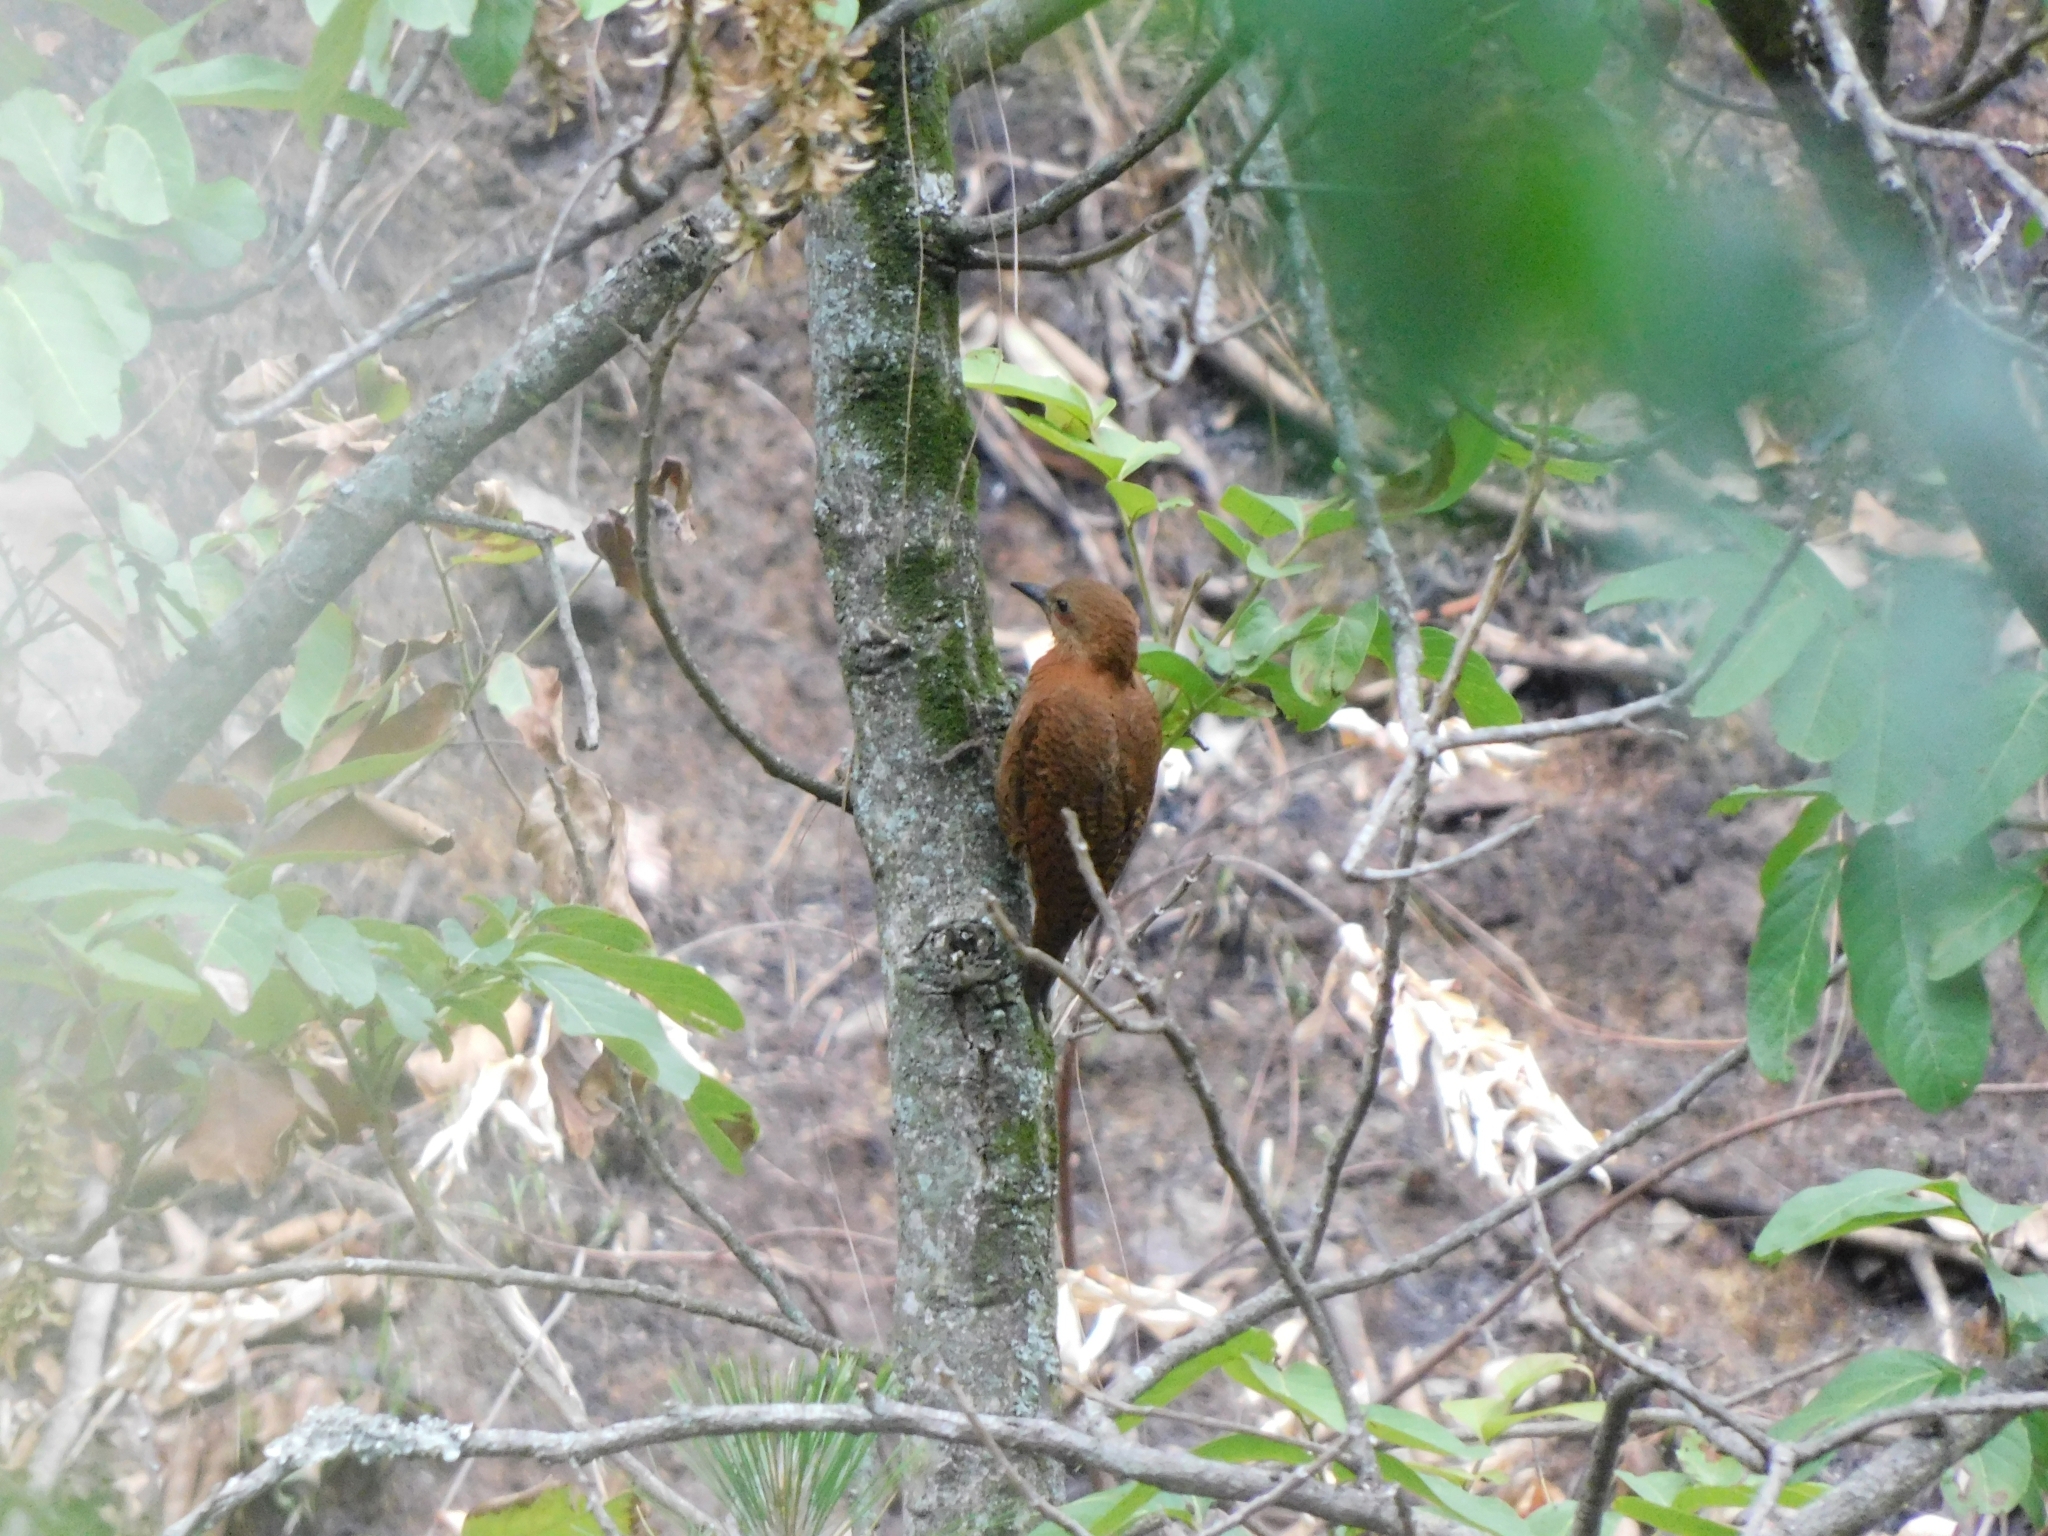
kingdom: Animalia
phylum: Chordata
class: Aves
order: Piciformes
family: Picidae
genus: Micropternus
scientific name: Micropternus brachyurus
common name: Rufous woodpecker
